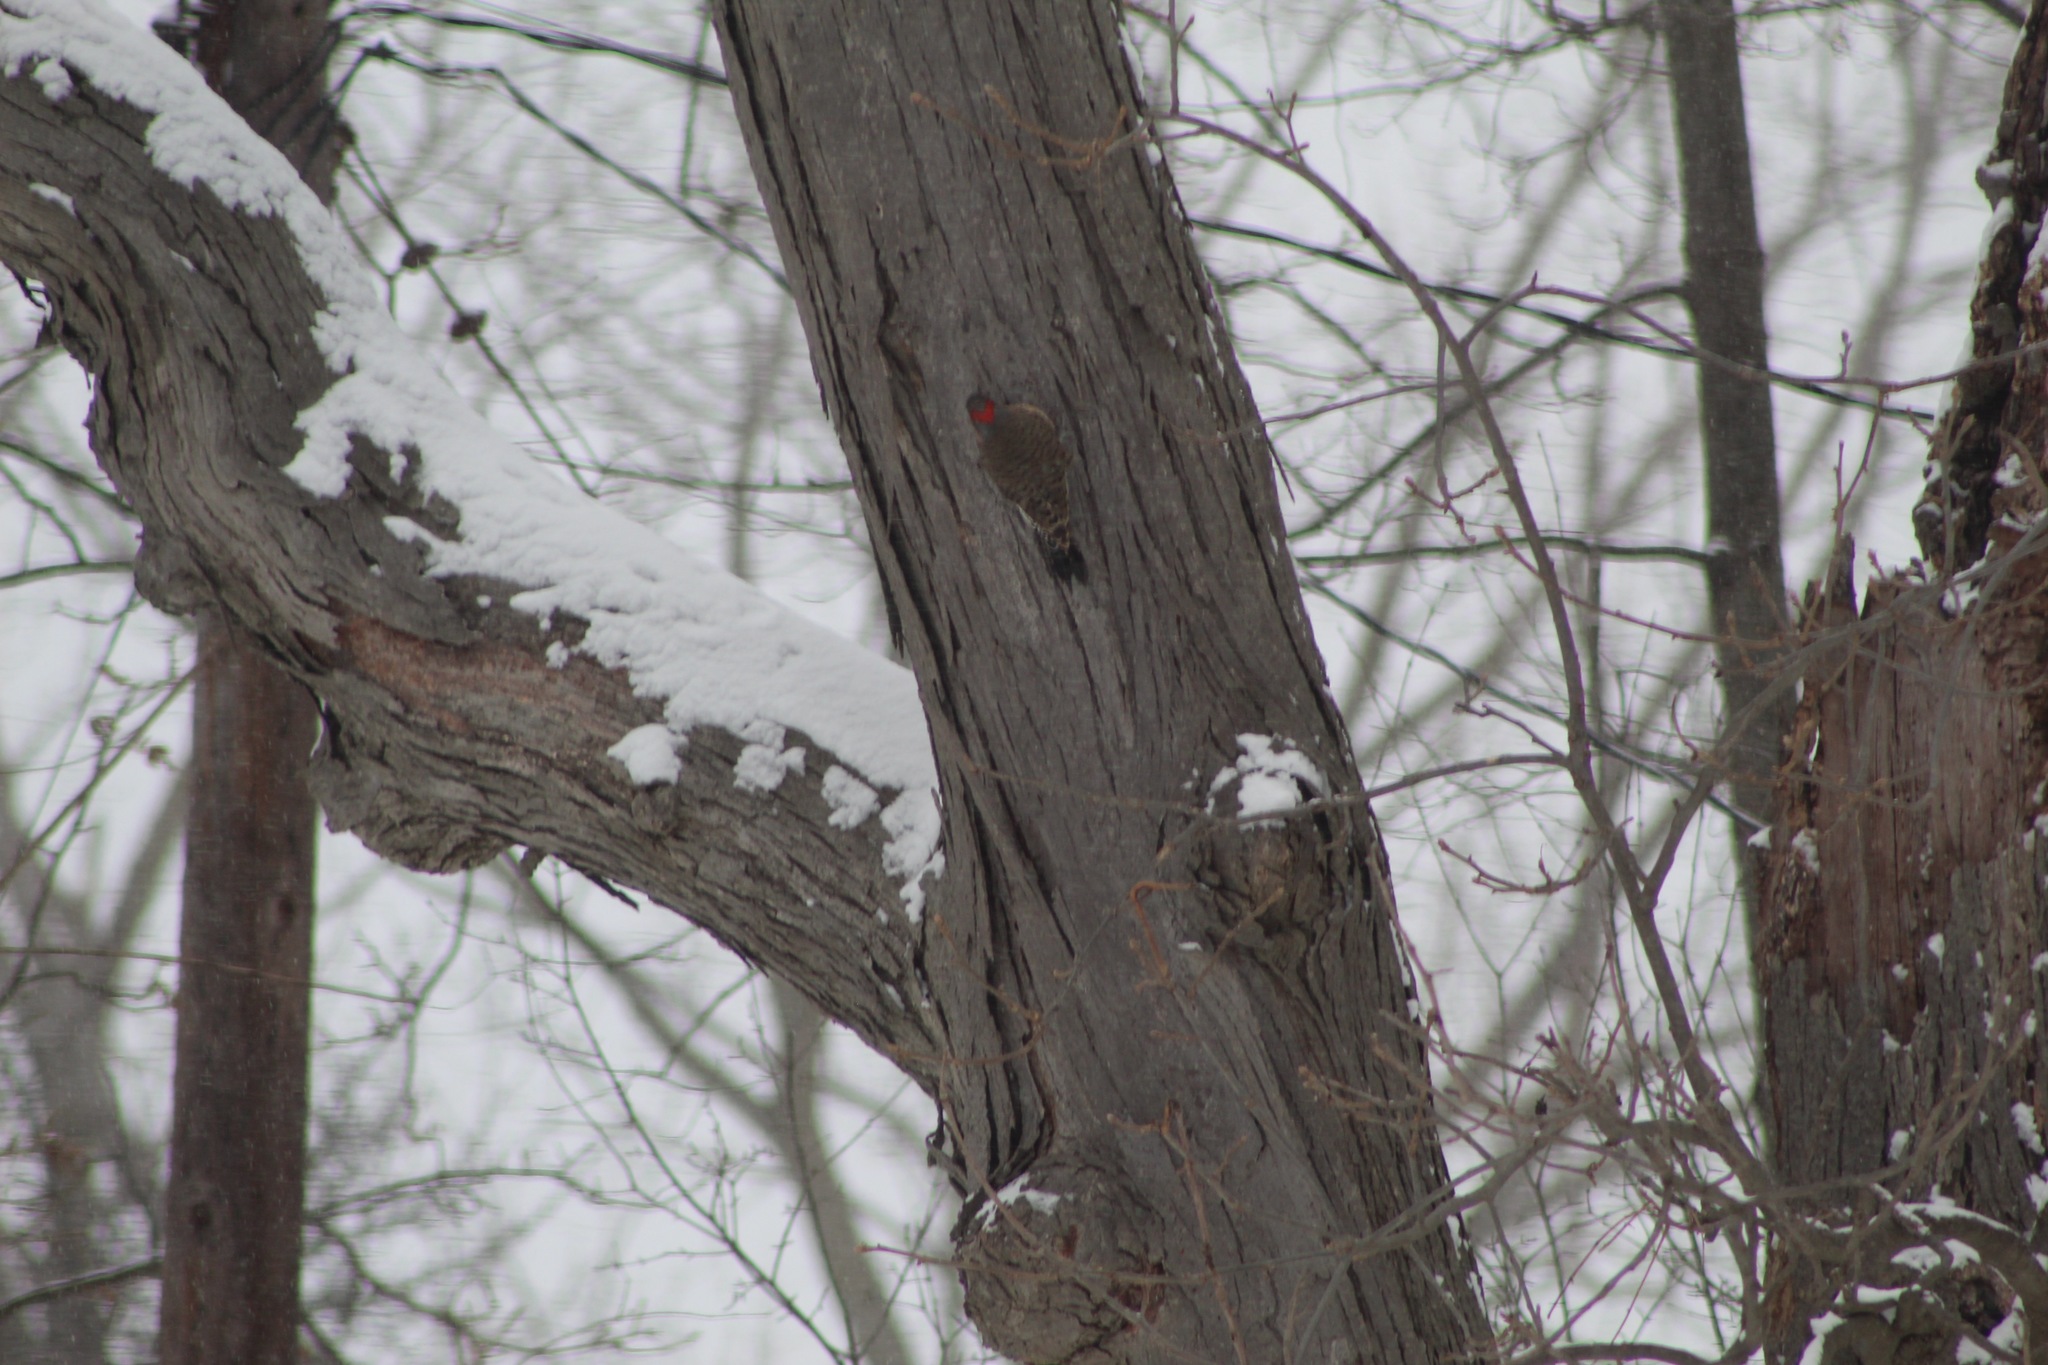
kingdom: Animalia
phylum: Chordata
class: Aves
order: Piciformes
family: Picidae
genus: Colaptes
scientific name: Colaptes auratus
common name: Northern flicker
